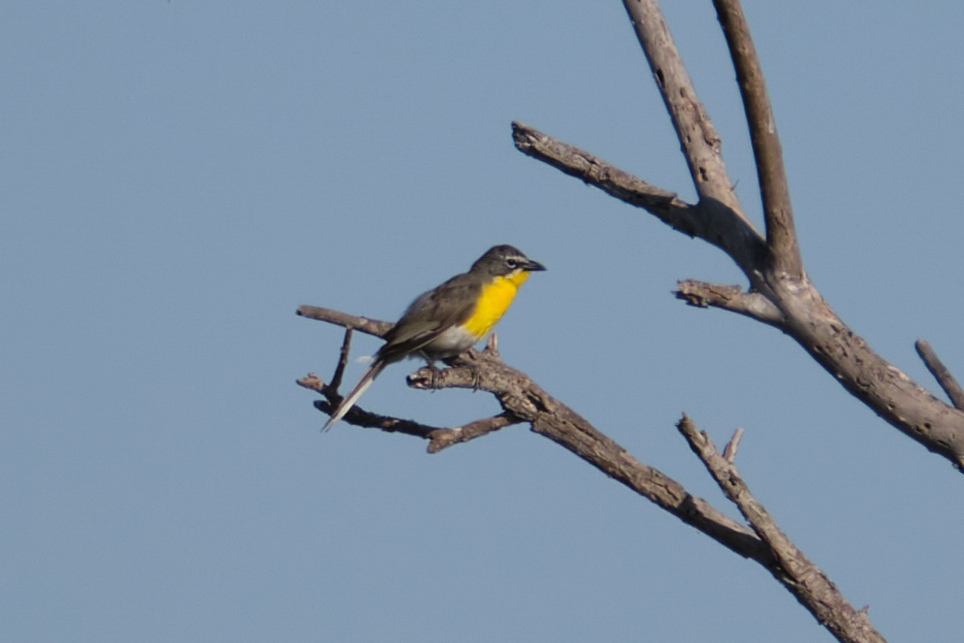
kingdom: Animalia
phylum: Chordata
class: Aves
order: Passeriformes
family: Parulidae
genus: Icteria
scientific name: Icteria virens
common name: Yellow-breasted chat
